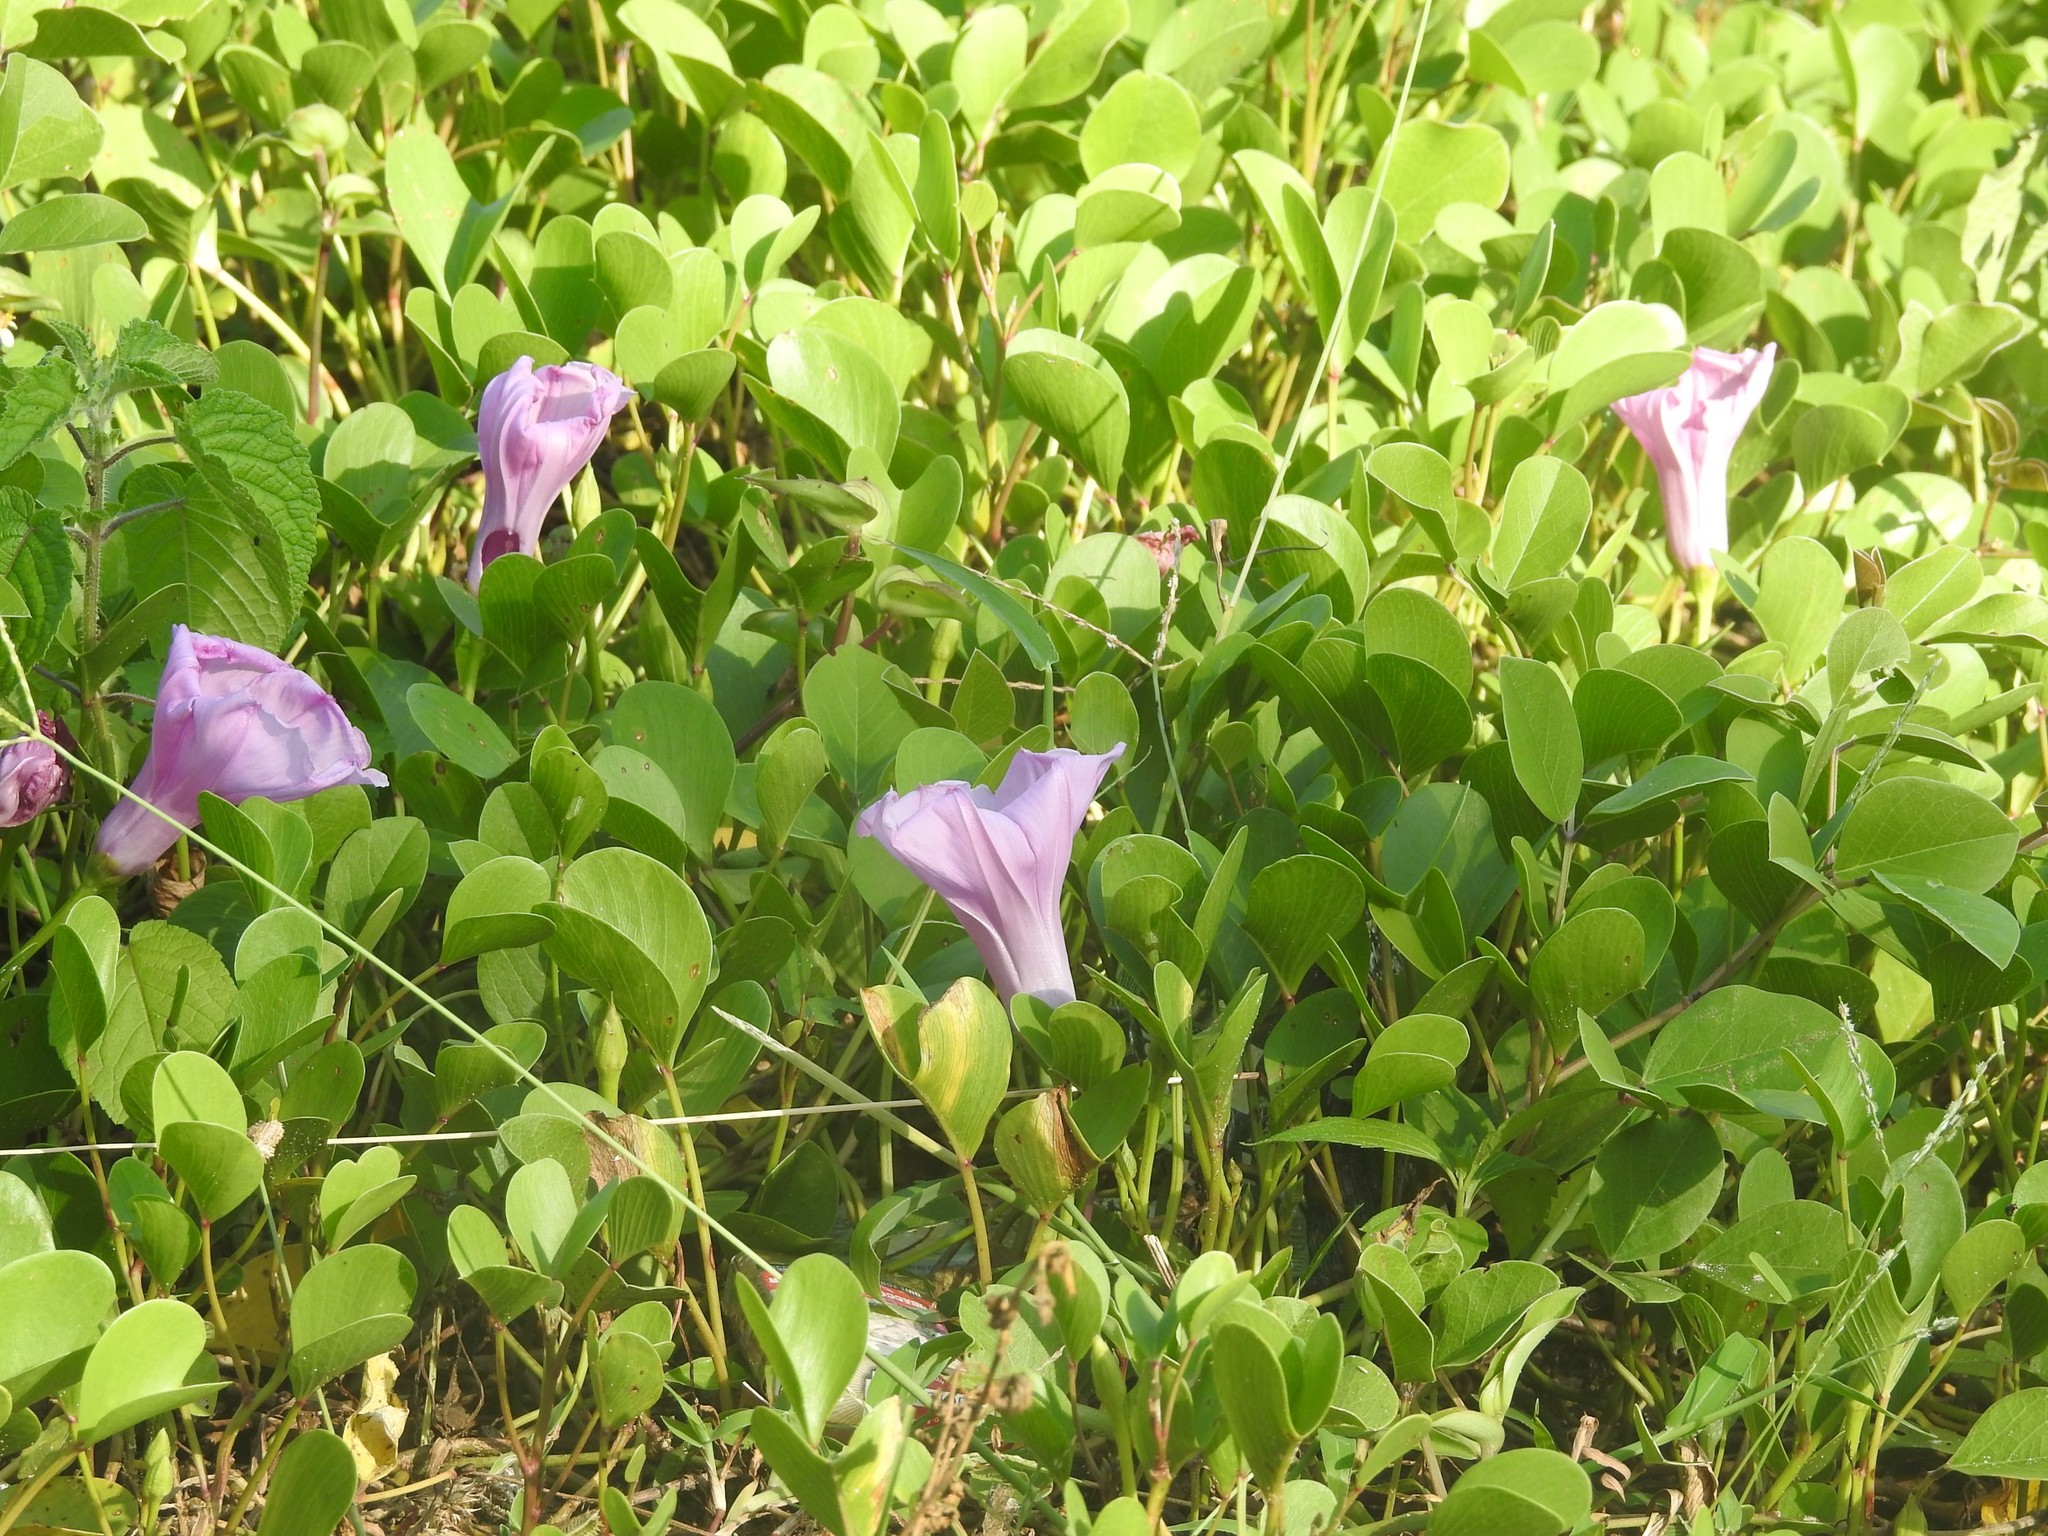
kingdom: Plantae
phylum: Tracheophyta
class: Magnoliopsida
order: Solanales
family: Convolvulaceae
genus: Ipomoea
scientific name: Ipomoea pes-caprae
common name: Beach morning glory
